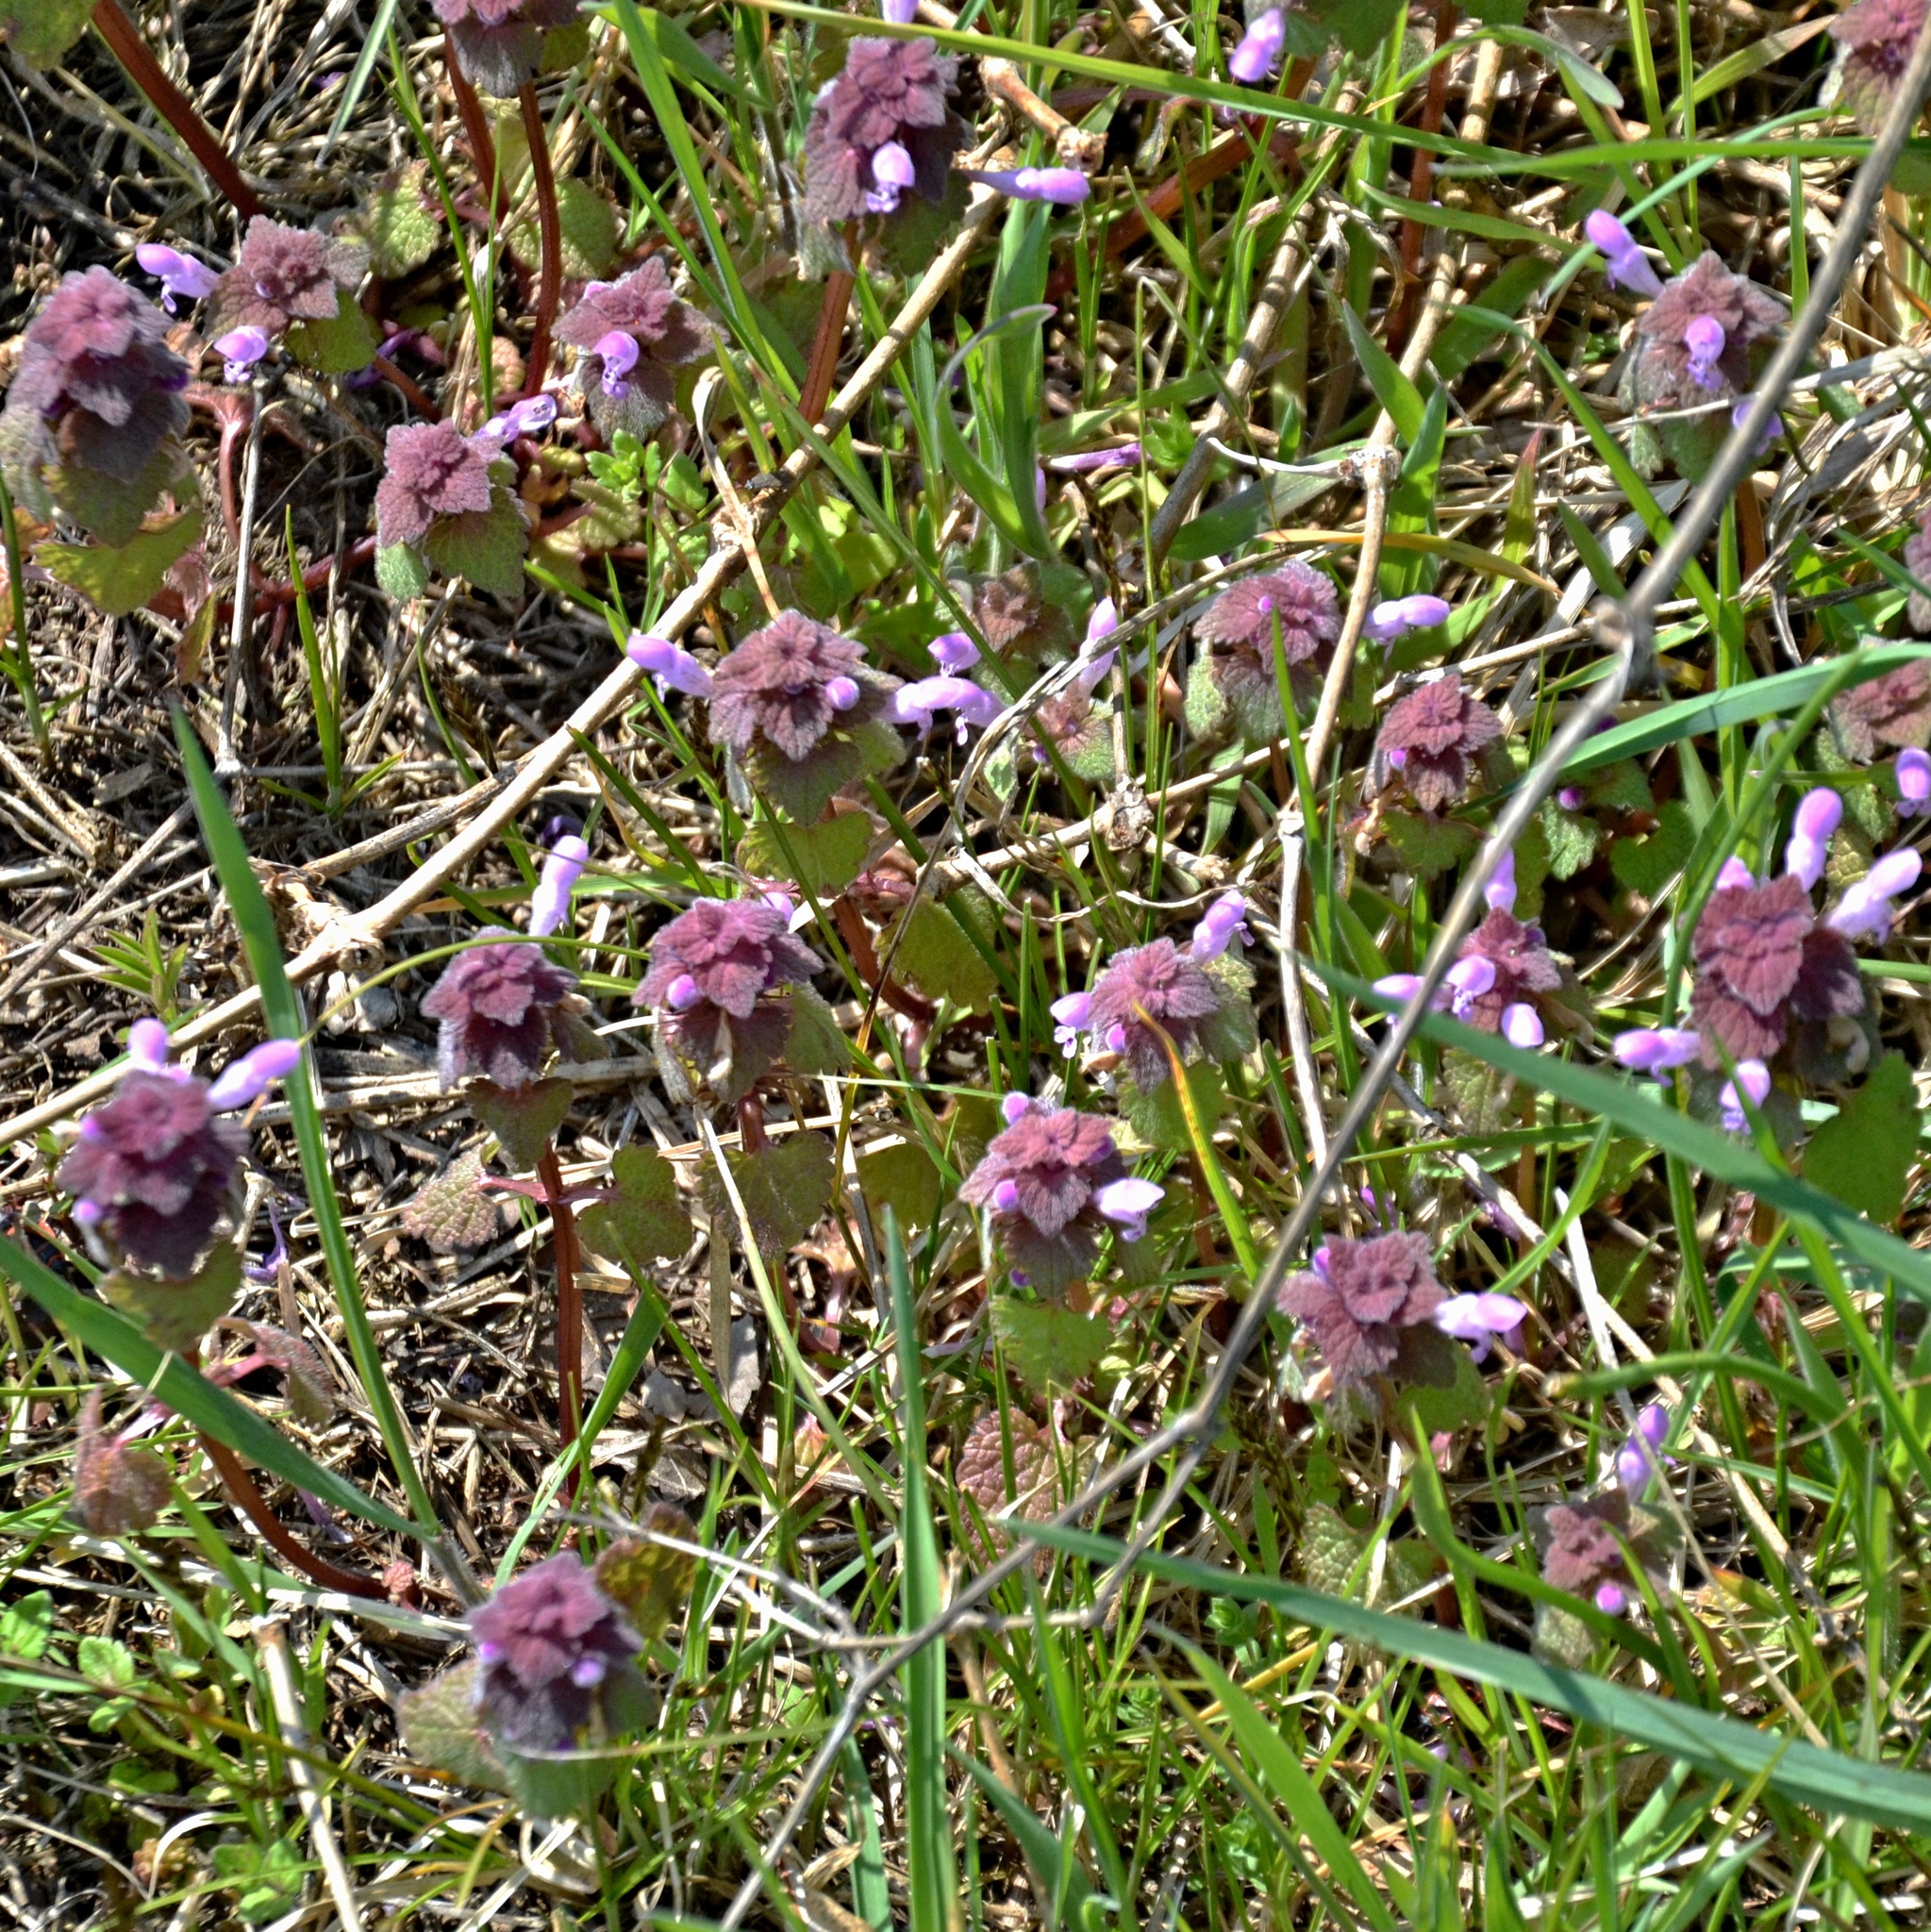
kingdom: Plantae
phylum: Tracheophyta
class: Magnoliopsida
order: Lamiales
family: Lamiaceae
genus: Lamium
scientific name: Lamium purpureum
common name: Red dead-nettle
